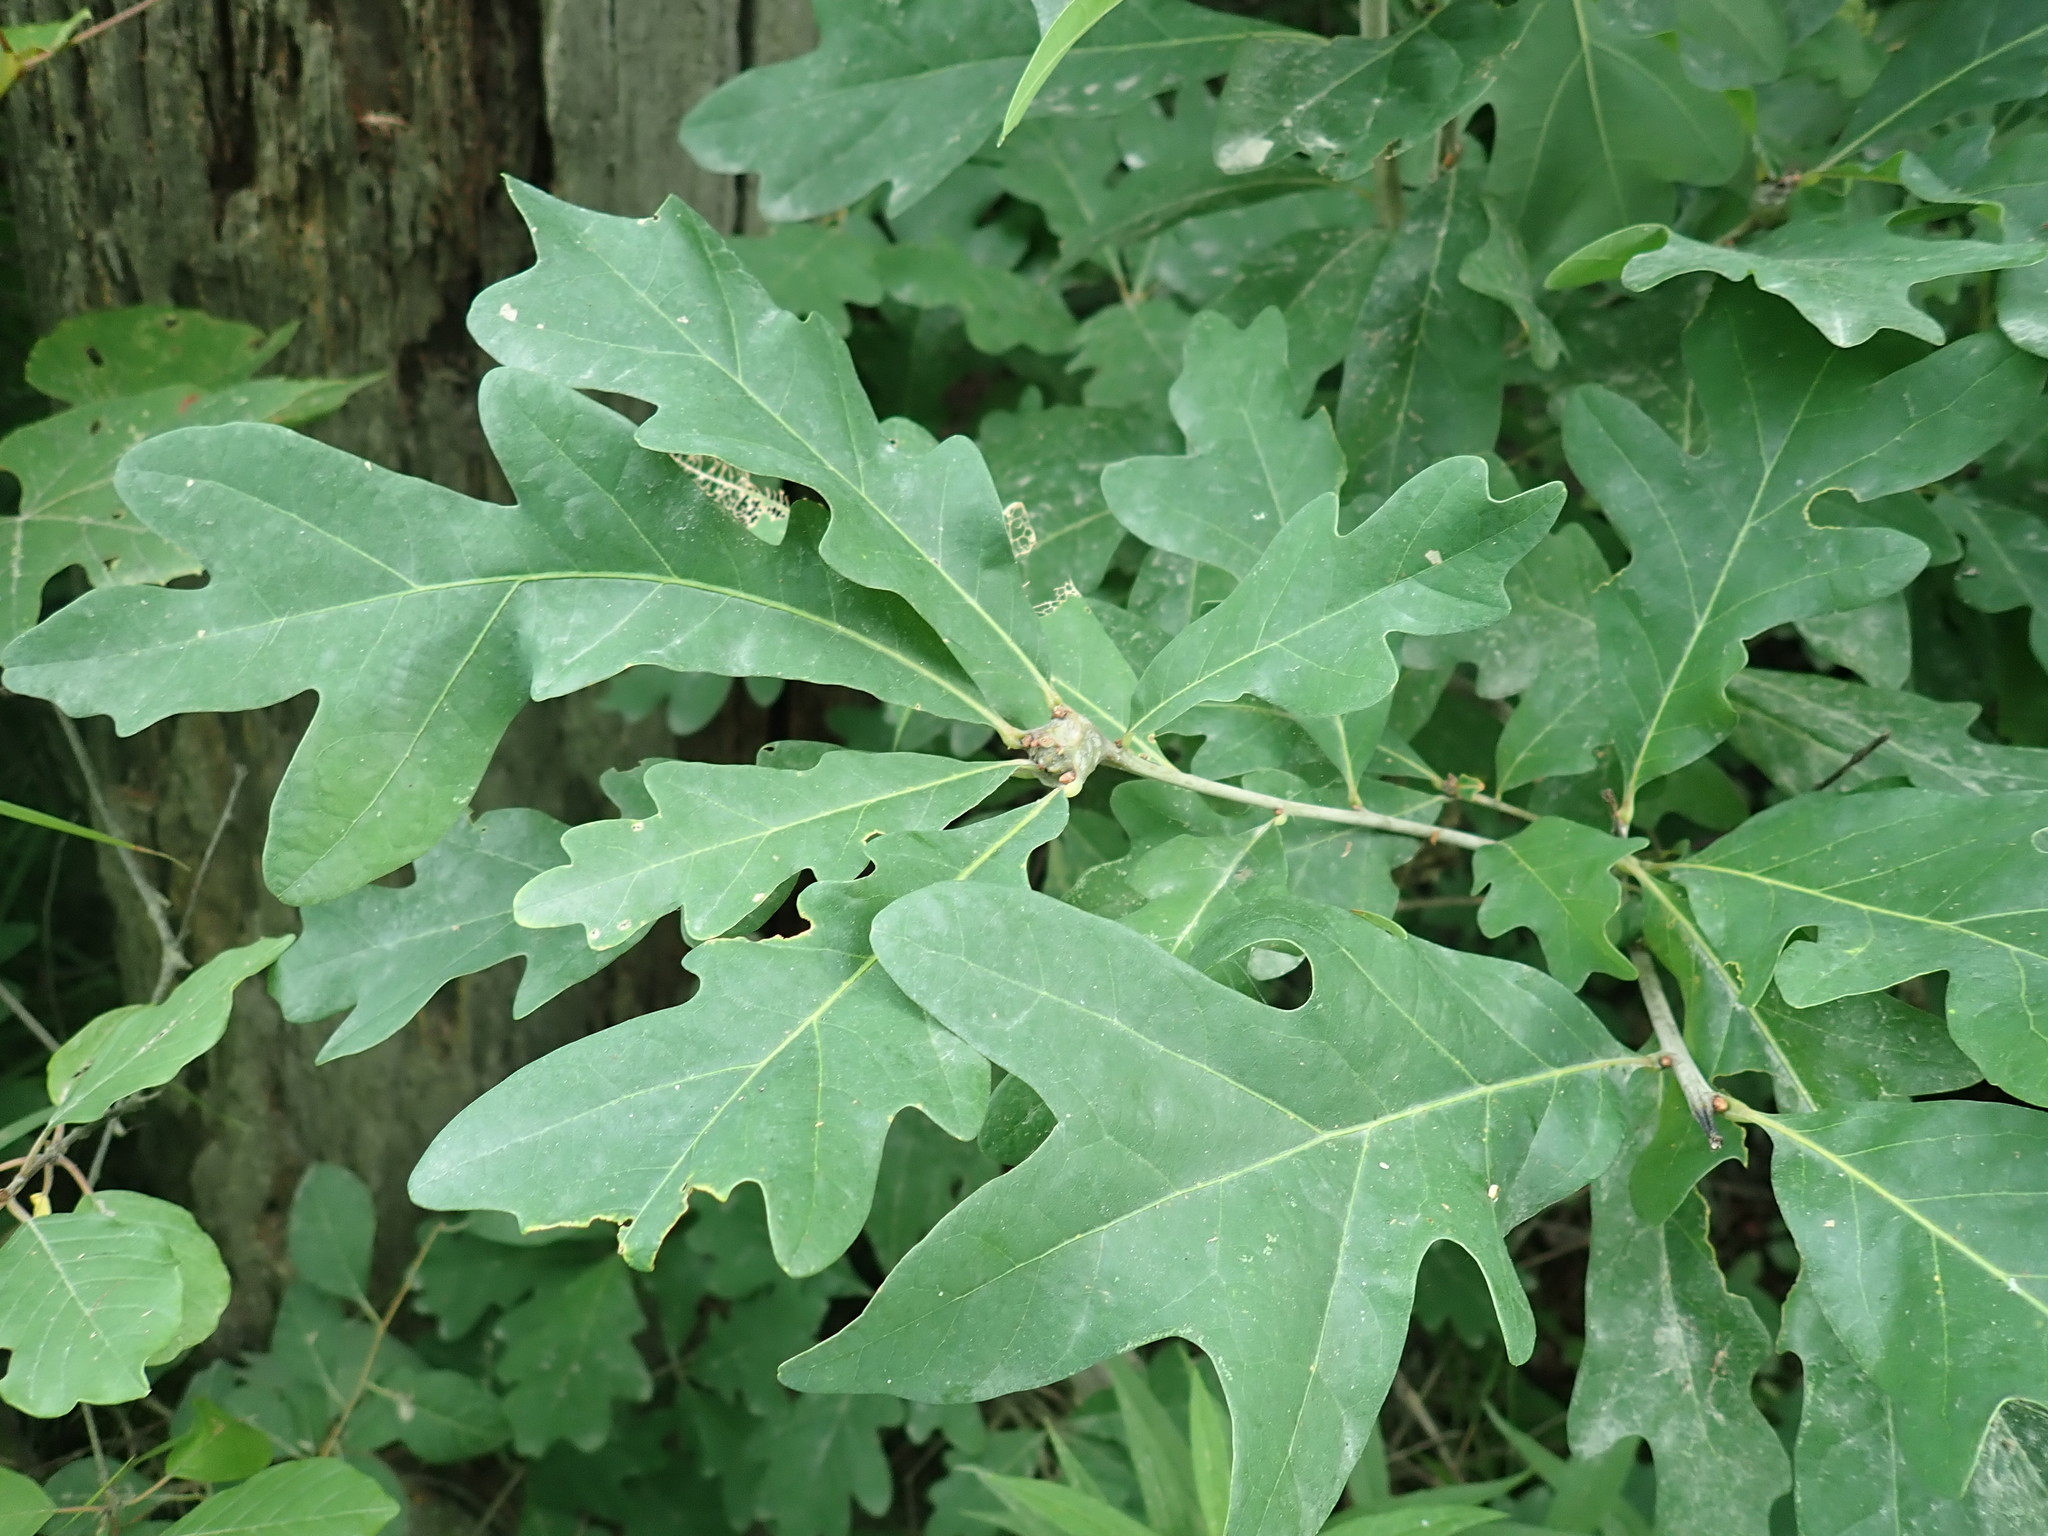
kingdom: Animalia
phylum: Arthropoda
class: Insecta
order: Hymenoptera
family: Cynipidae
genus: Callirhytis
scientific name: Callirhytis clavula
